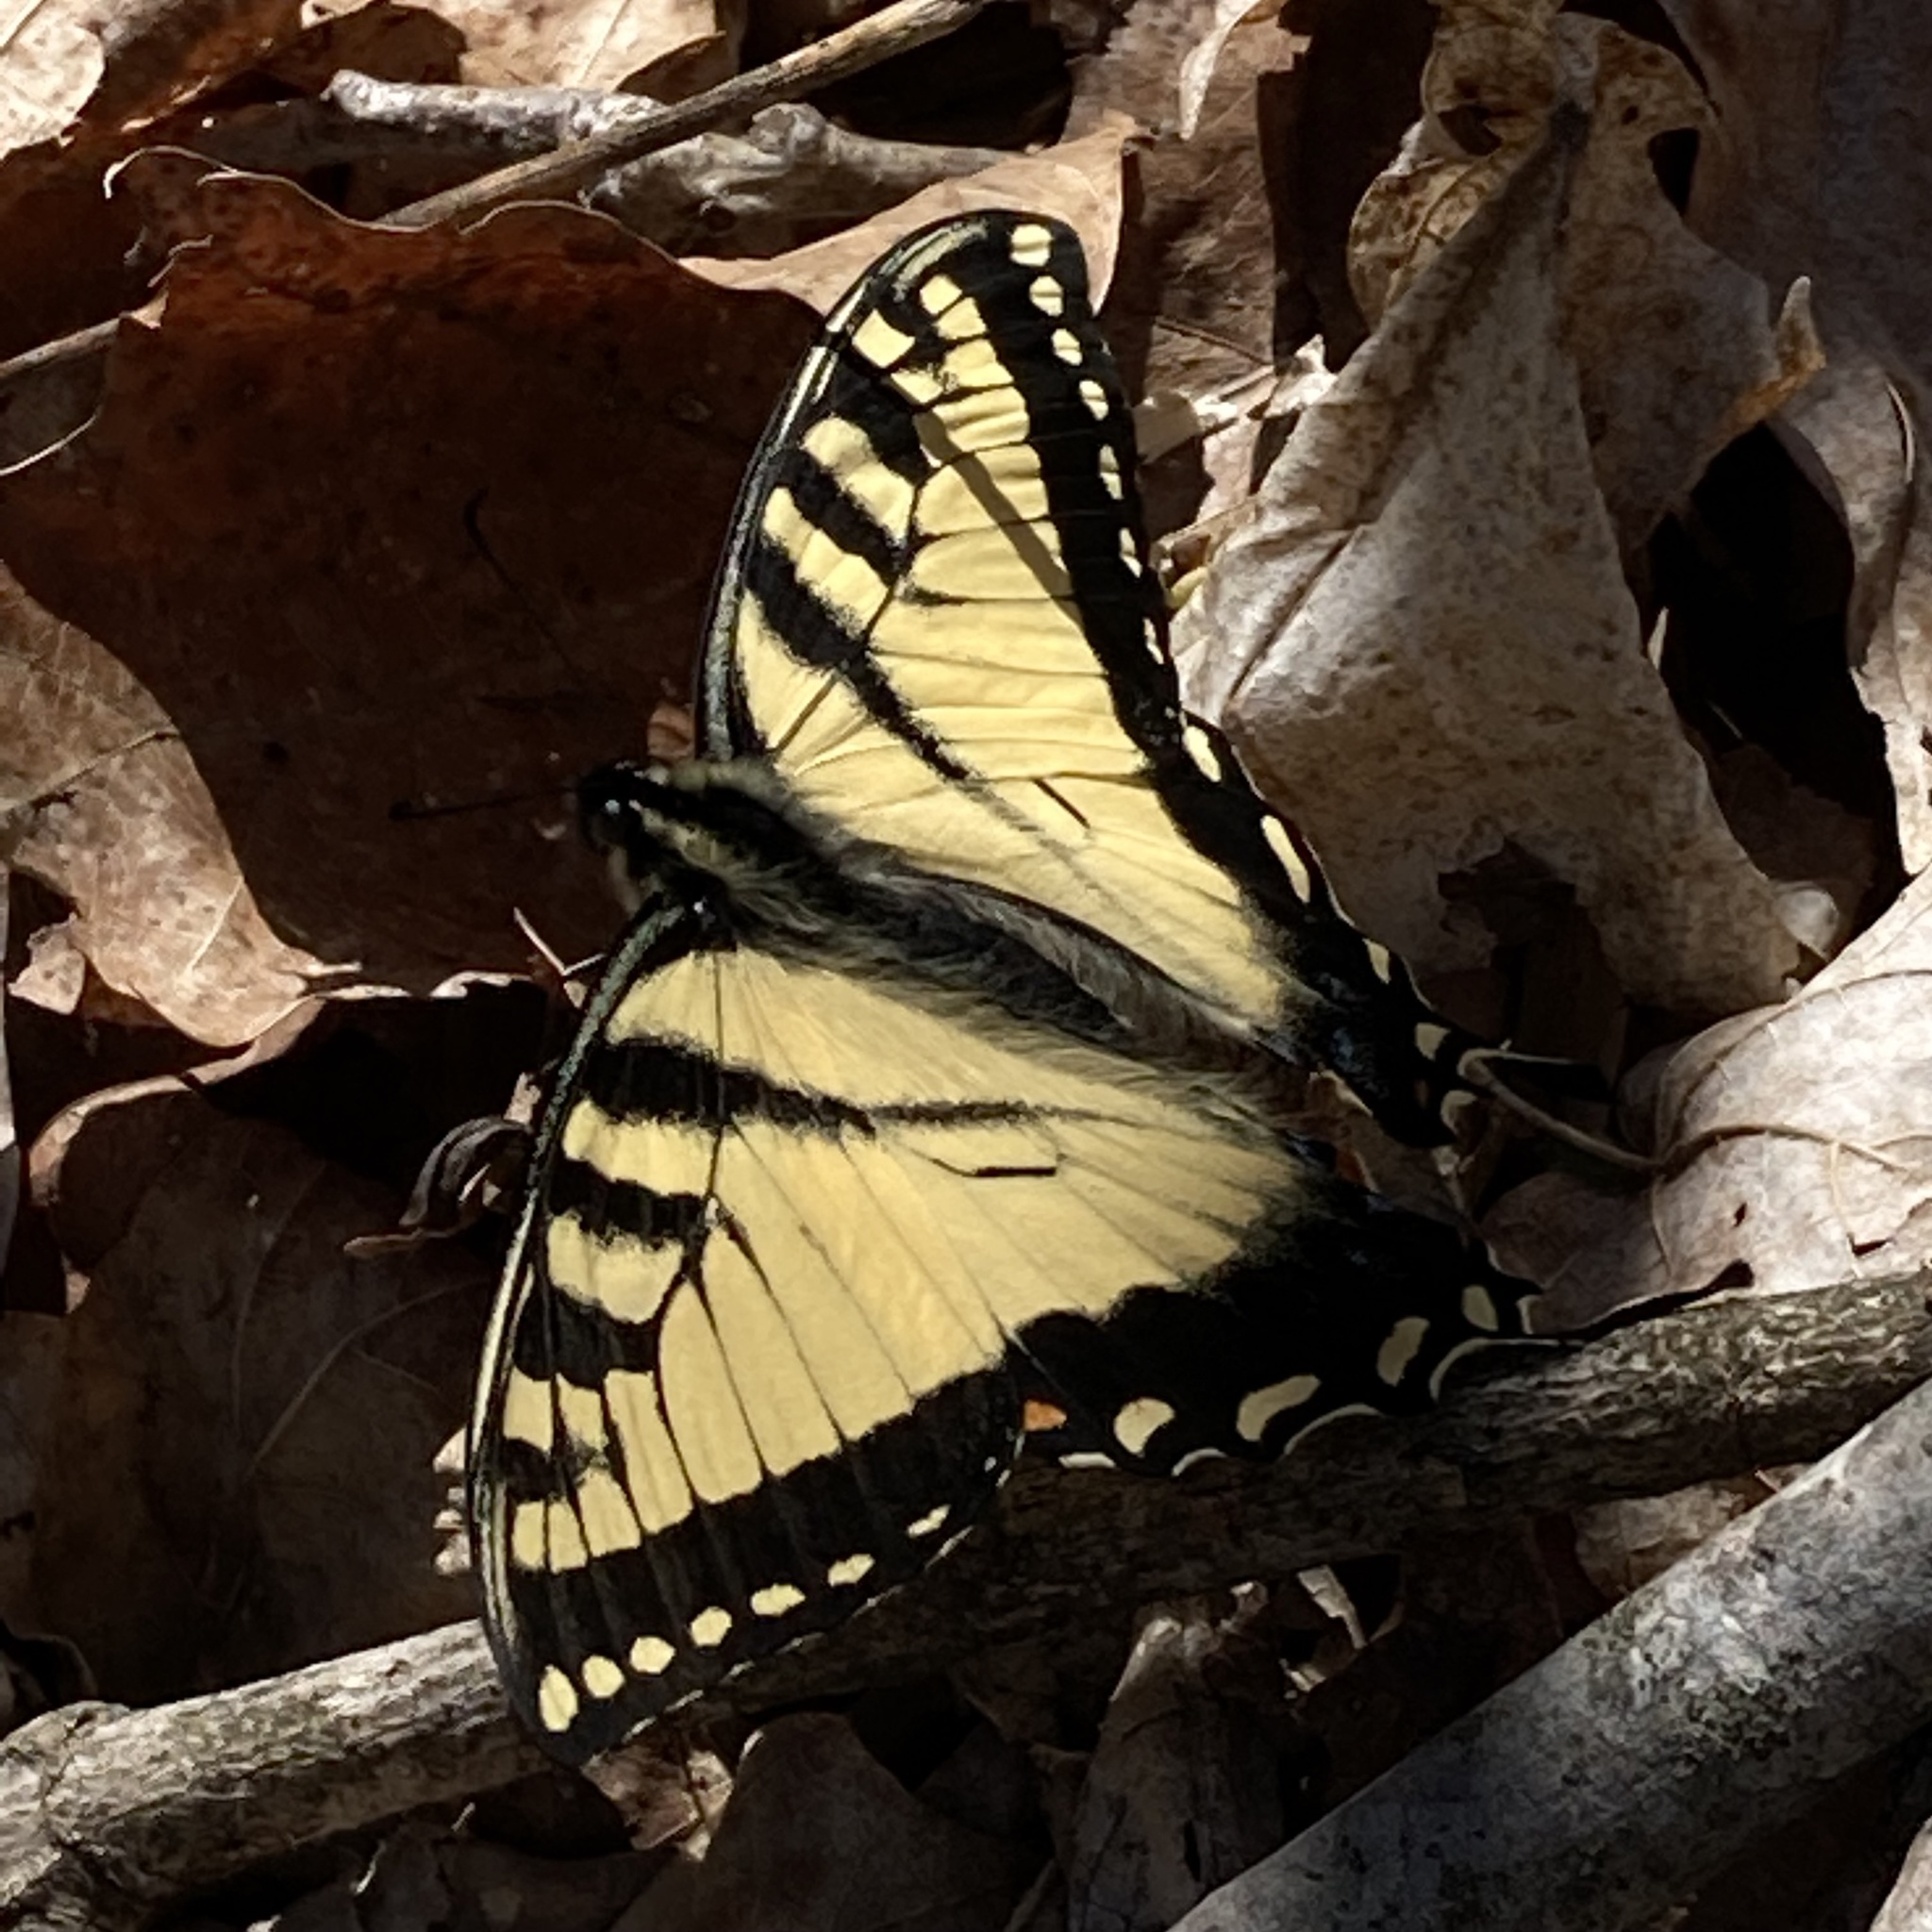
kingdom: Animalia
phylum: Arthropoda
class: Insecta
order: Lepidoptera
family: Papilionidae
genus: Papilio
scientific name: Papilio glaucus
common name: Tiger swallowtail
